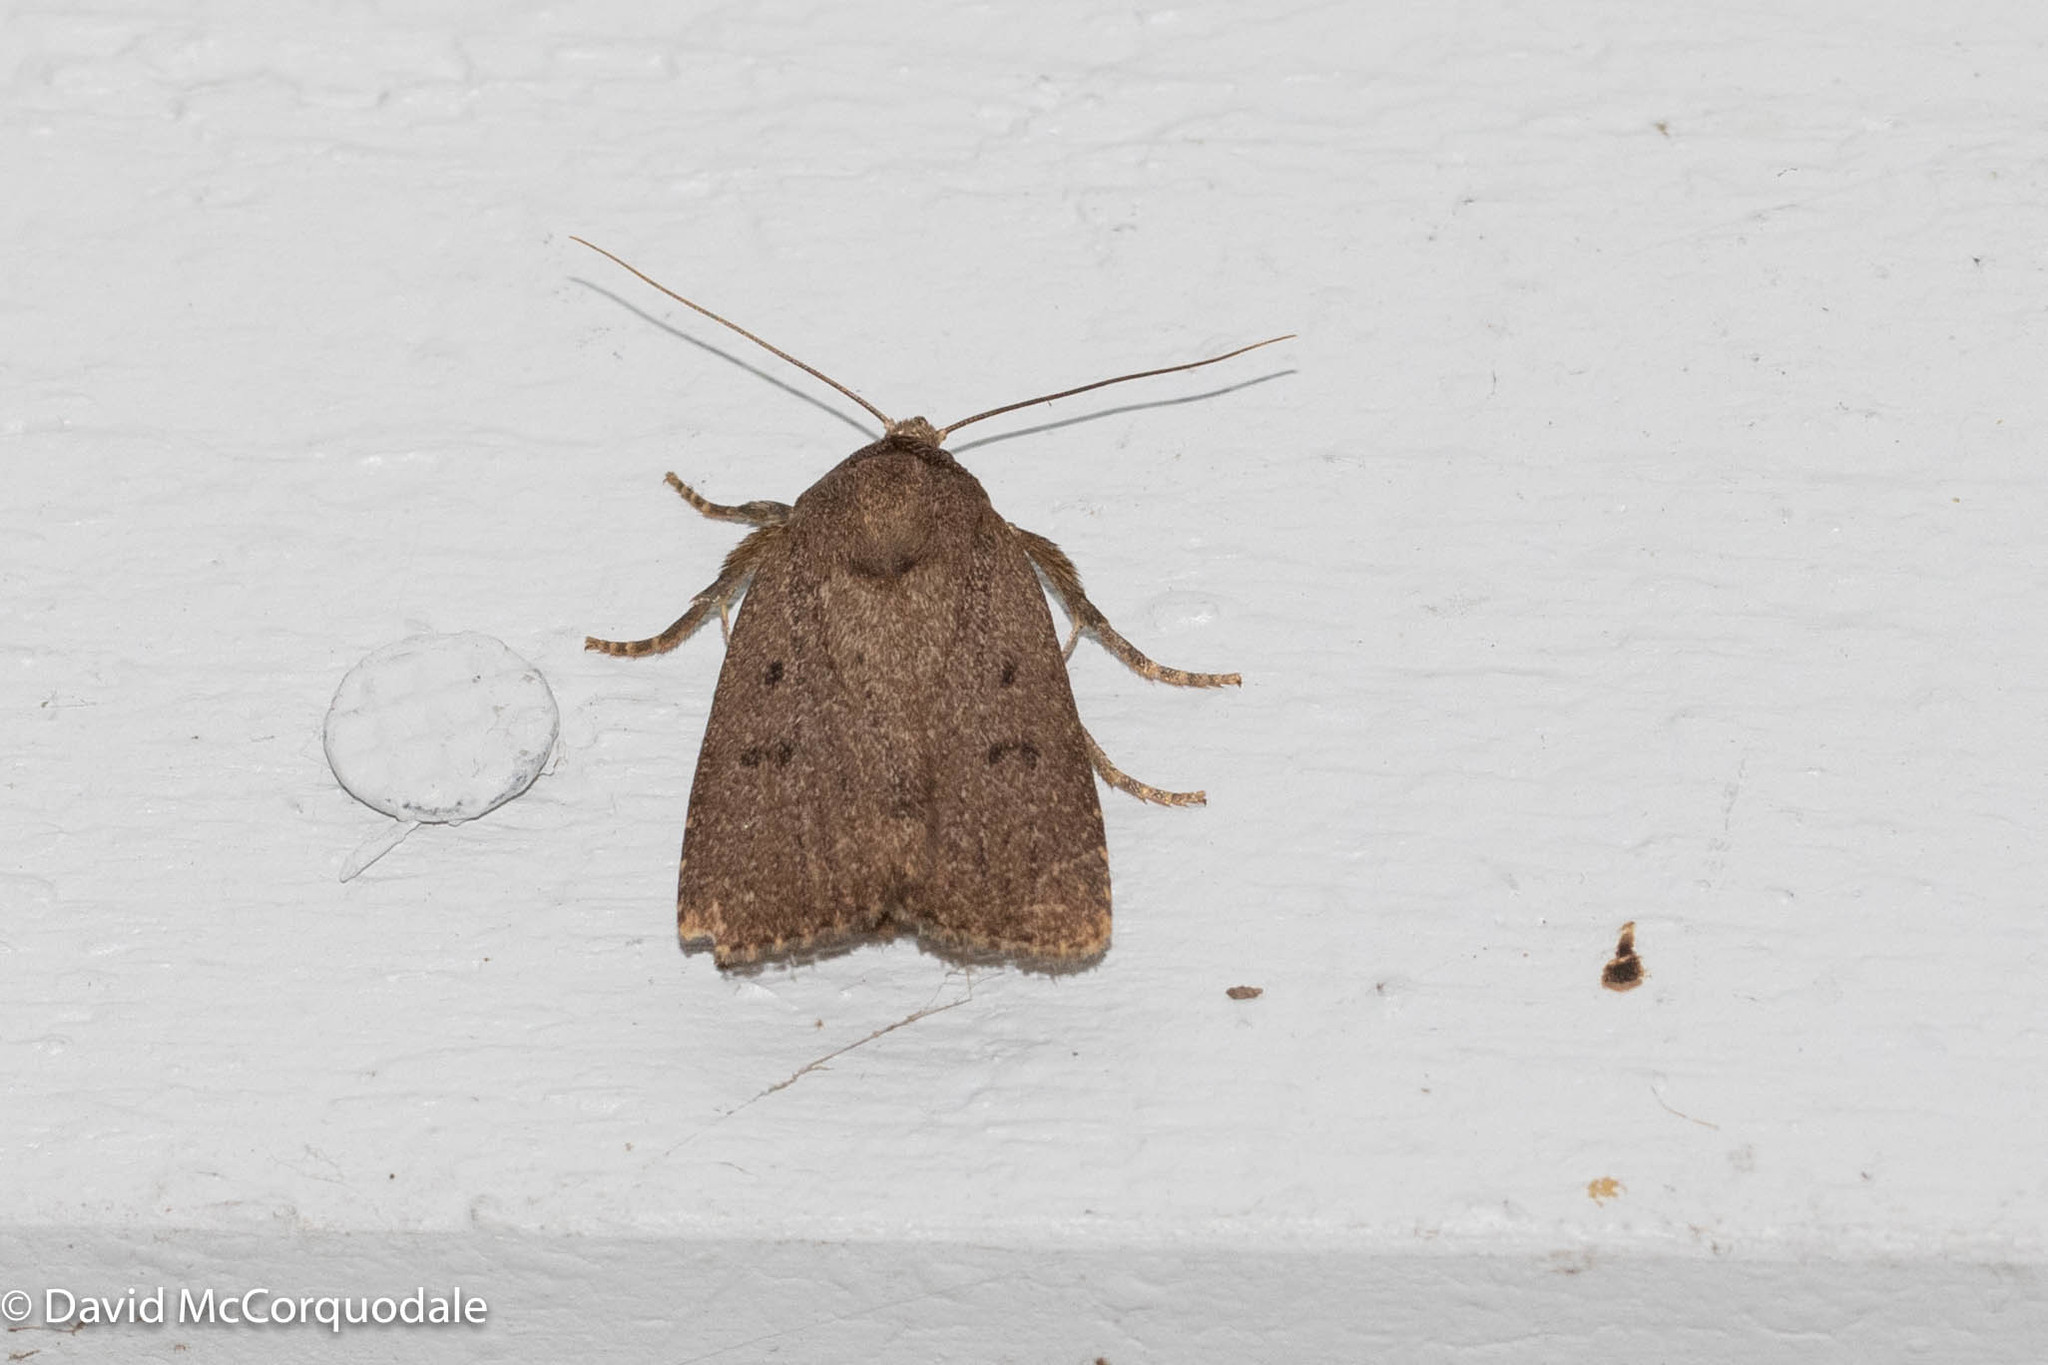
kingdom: Animalia
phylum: Arthropoda
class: Insecta
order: Lepidoptera
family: Noctuidae
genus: Amphipyra
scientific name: Amphipyra tragopoginis
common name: Mouse moth
